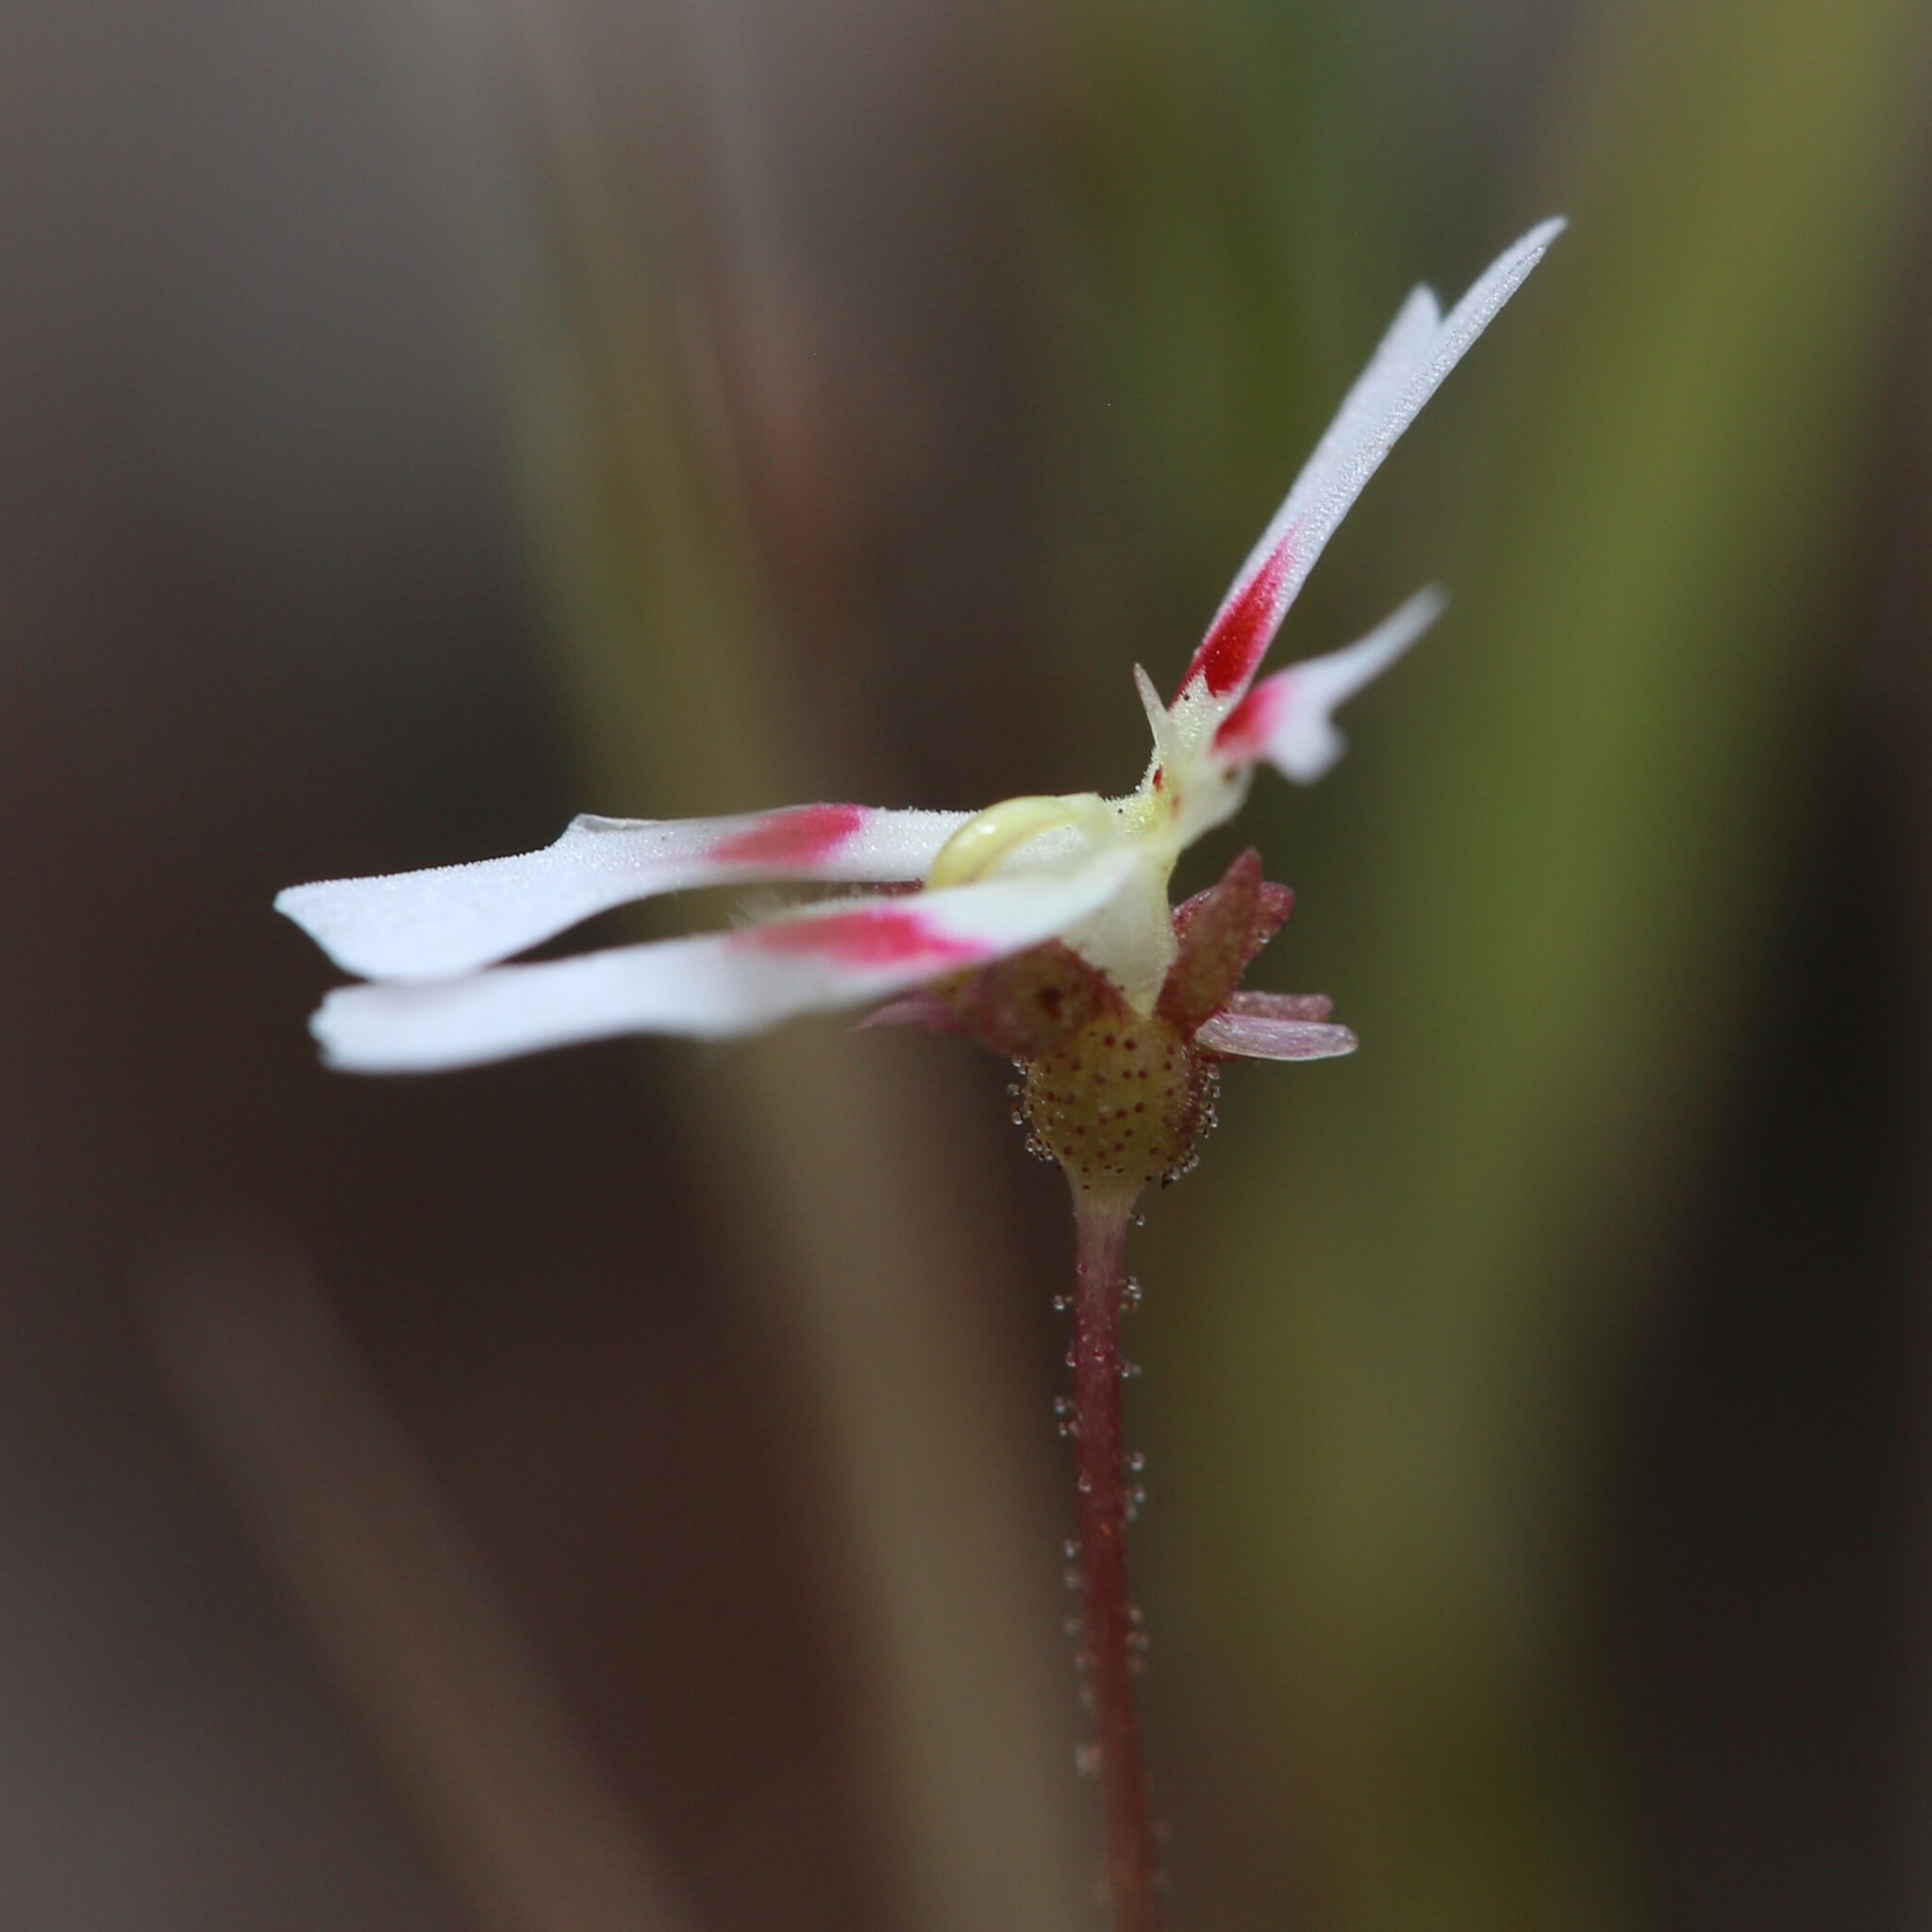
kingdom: Plantae
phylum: Tracheophyta
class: Magnoliopsida
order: Asterales
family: Stylidiaceae
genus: Stylidium
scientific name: Stylidium ecorne
